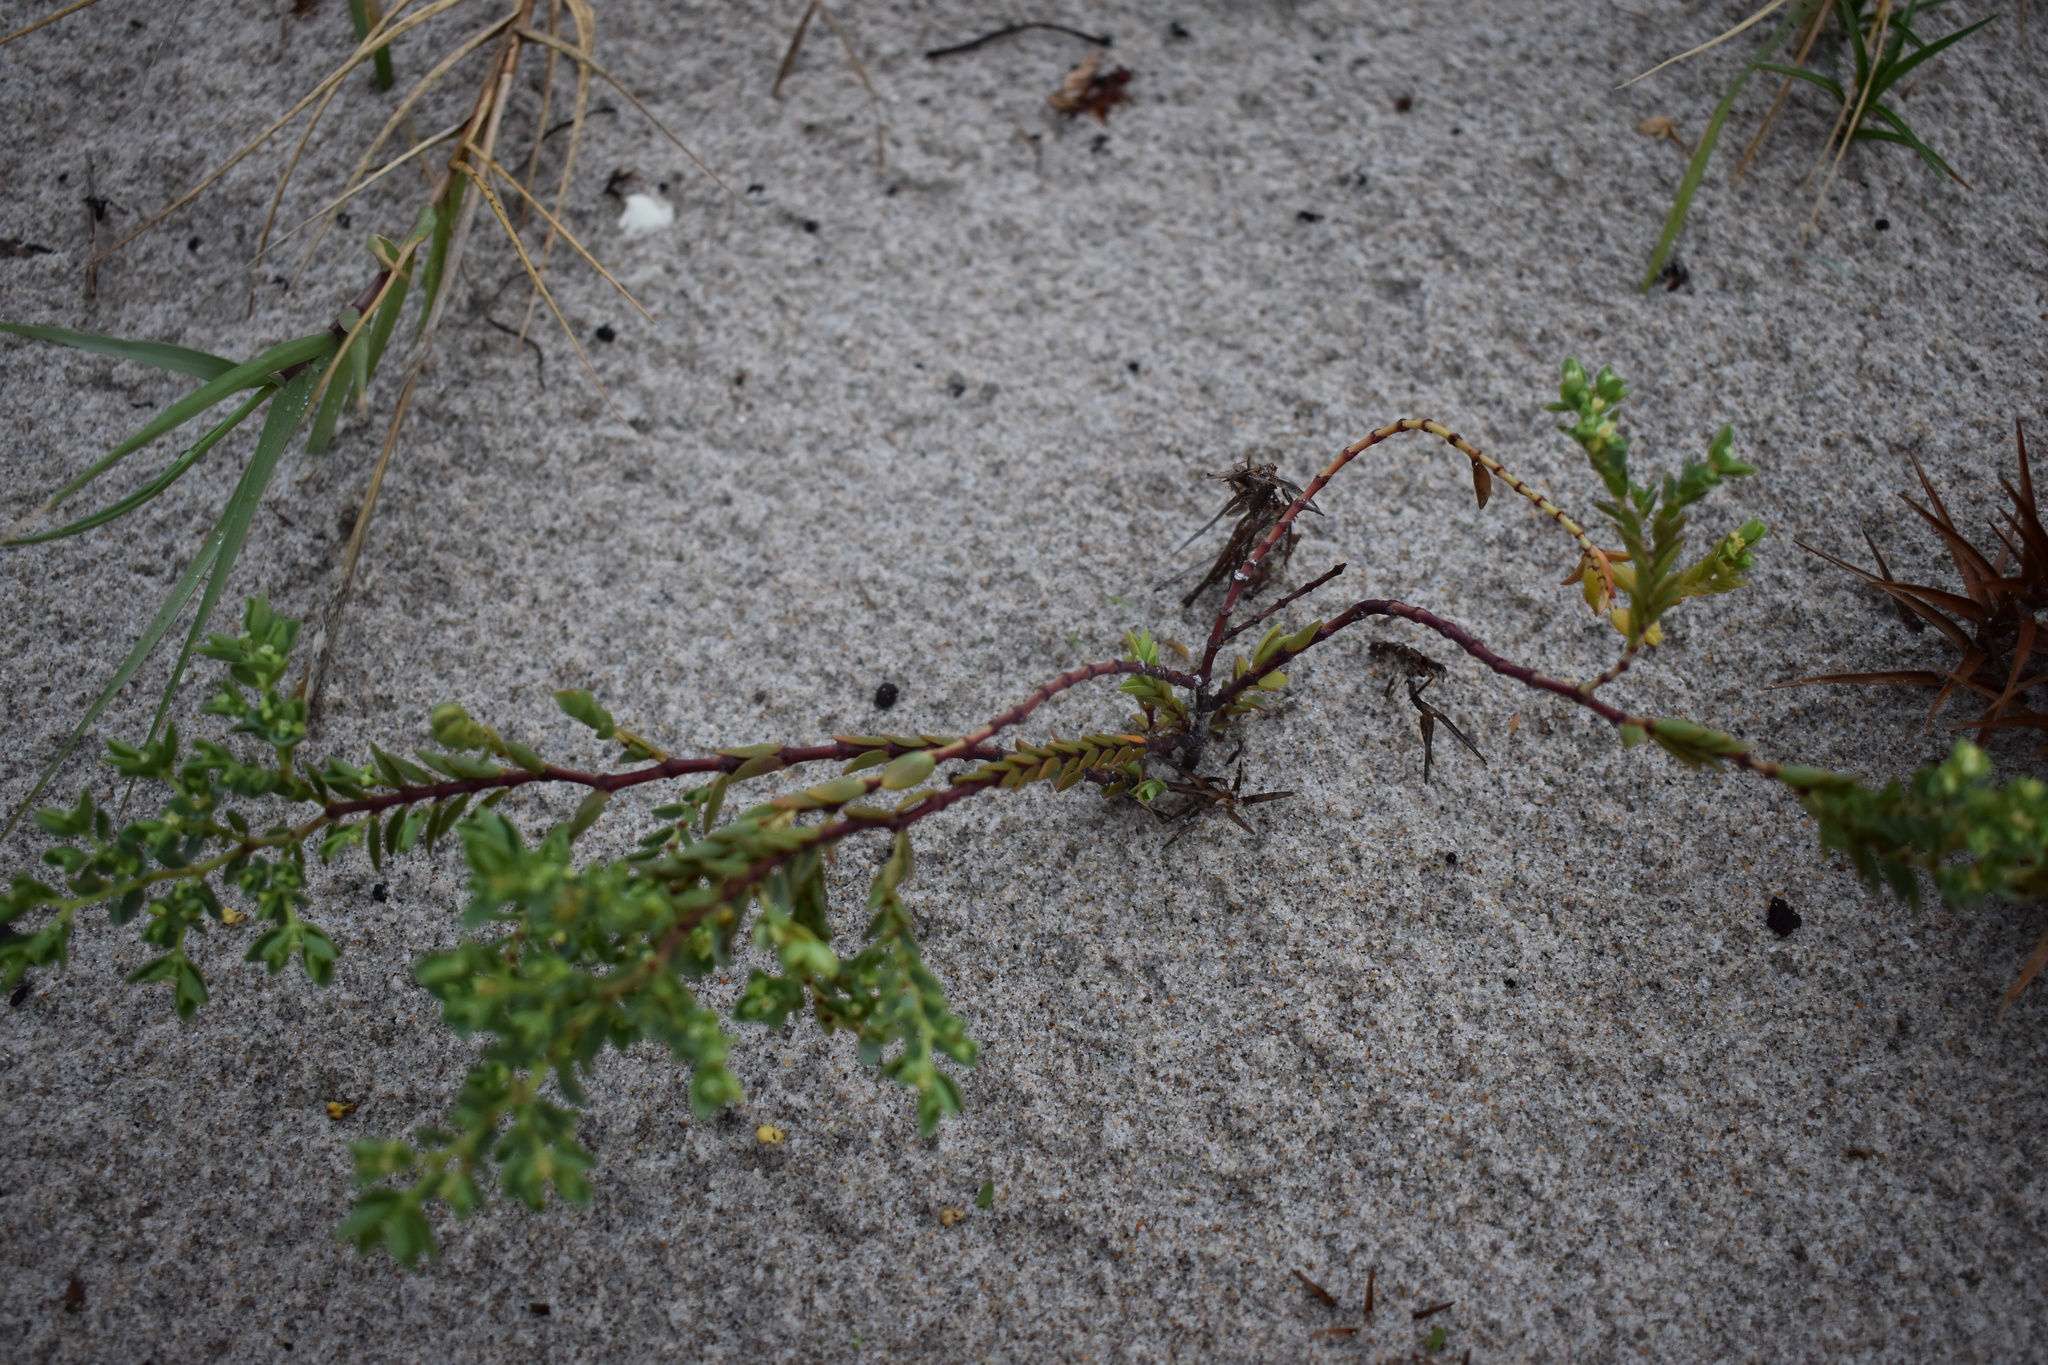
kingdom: Plantae
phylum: Tracheophyta
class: Magnoliopsida
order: Malpighiales
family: Euphorbiaceae
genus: Euphorbia
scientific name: Euphorbia mesembryanthemifolia
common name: Coastal beach sandmat
